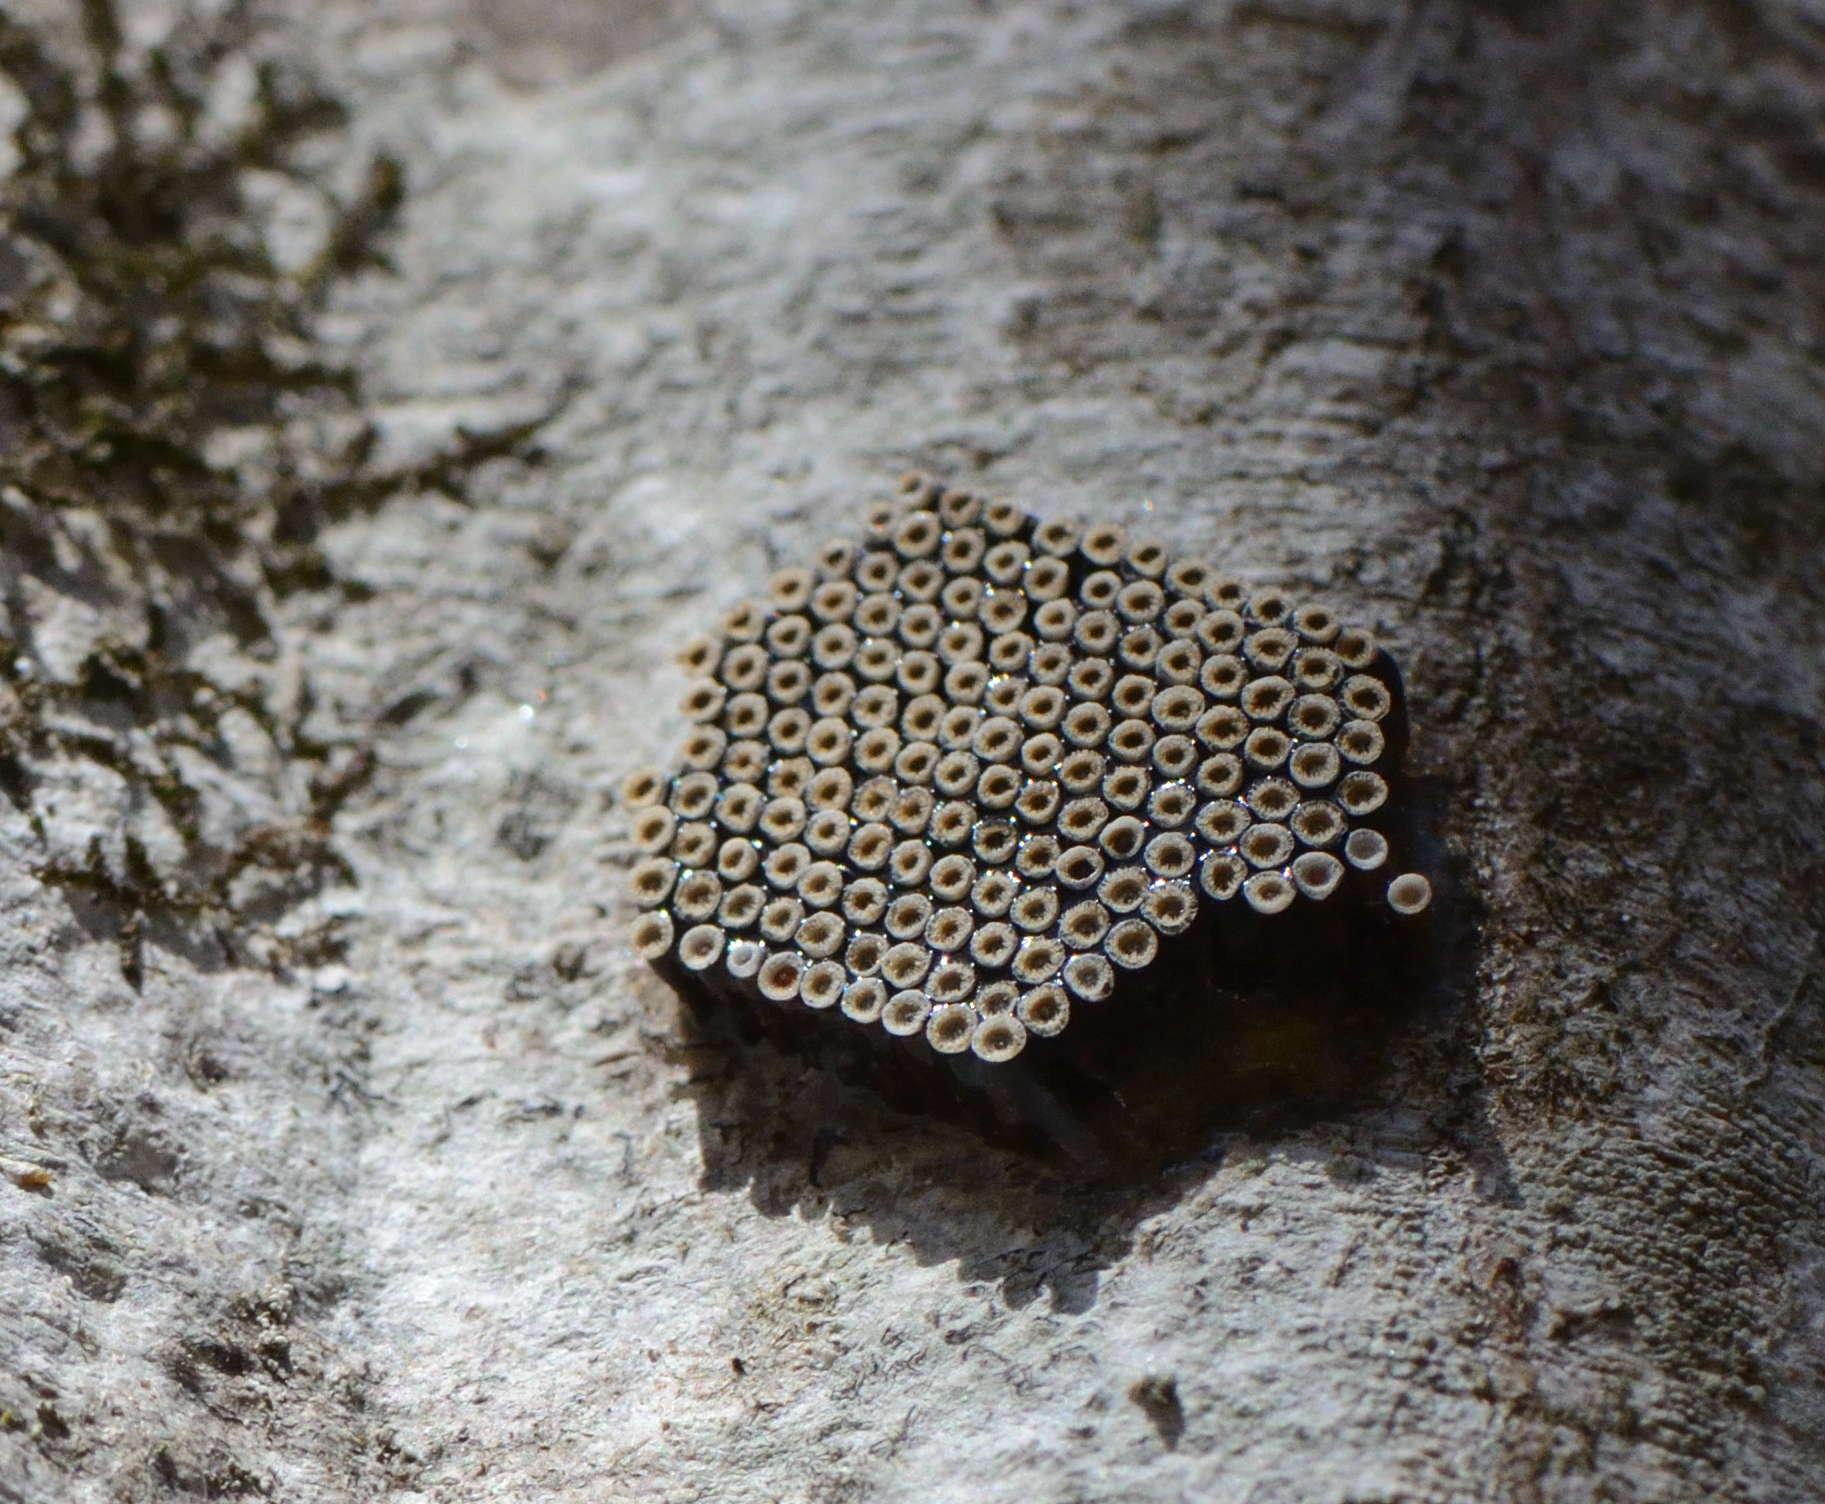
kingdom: Animalia
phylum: Arthropoda
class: Insecta
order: Hemiptera
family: Reduviidae
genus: Arilus
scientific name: Arilus cristatus
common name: North american wheel bug
